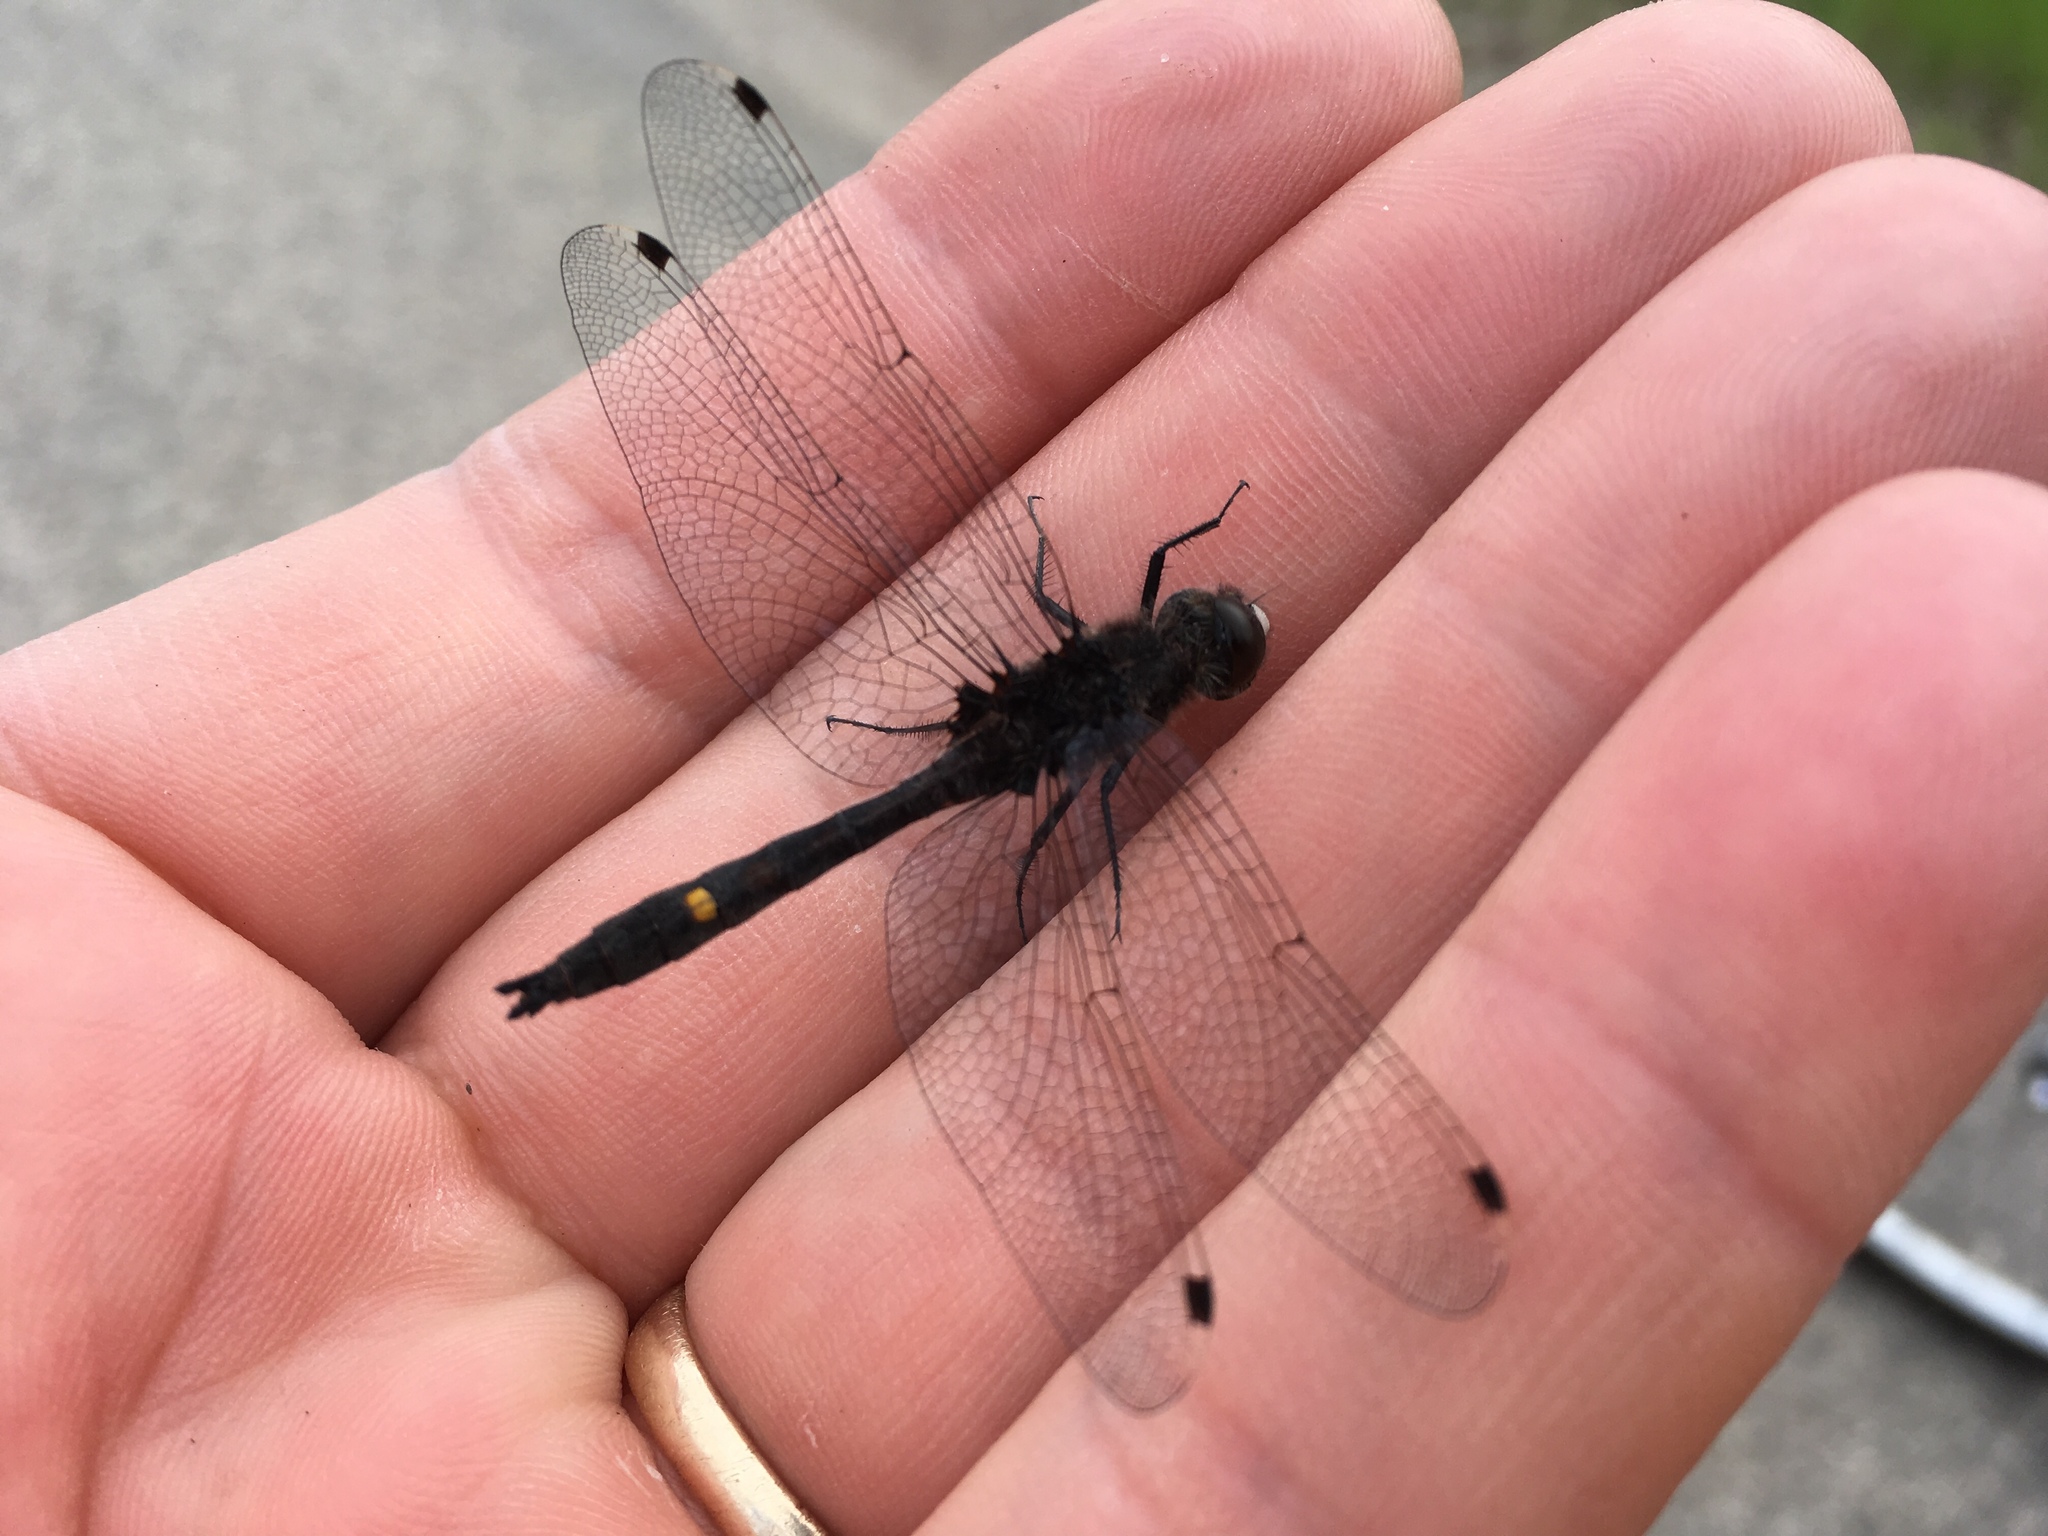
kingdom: Animalia
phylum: Arthropoda
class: Insecta
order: Odonata
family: Libellulidae
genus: Leucorrhinia
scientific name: Leucorrhinia intacta
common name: Dot-tailed whiteface
